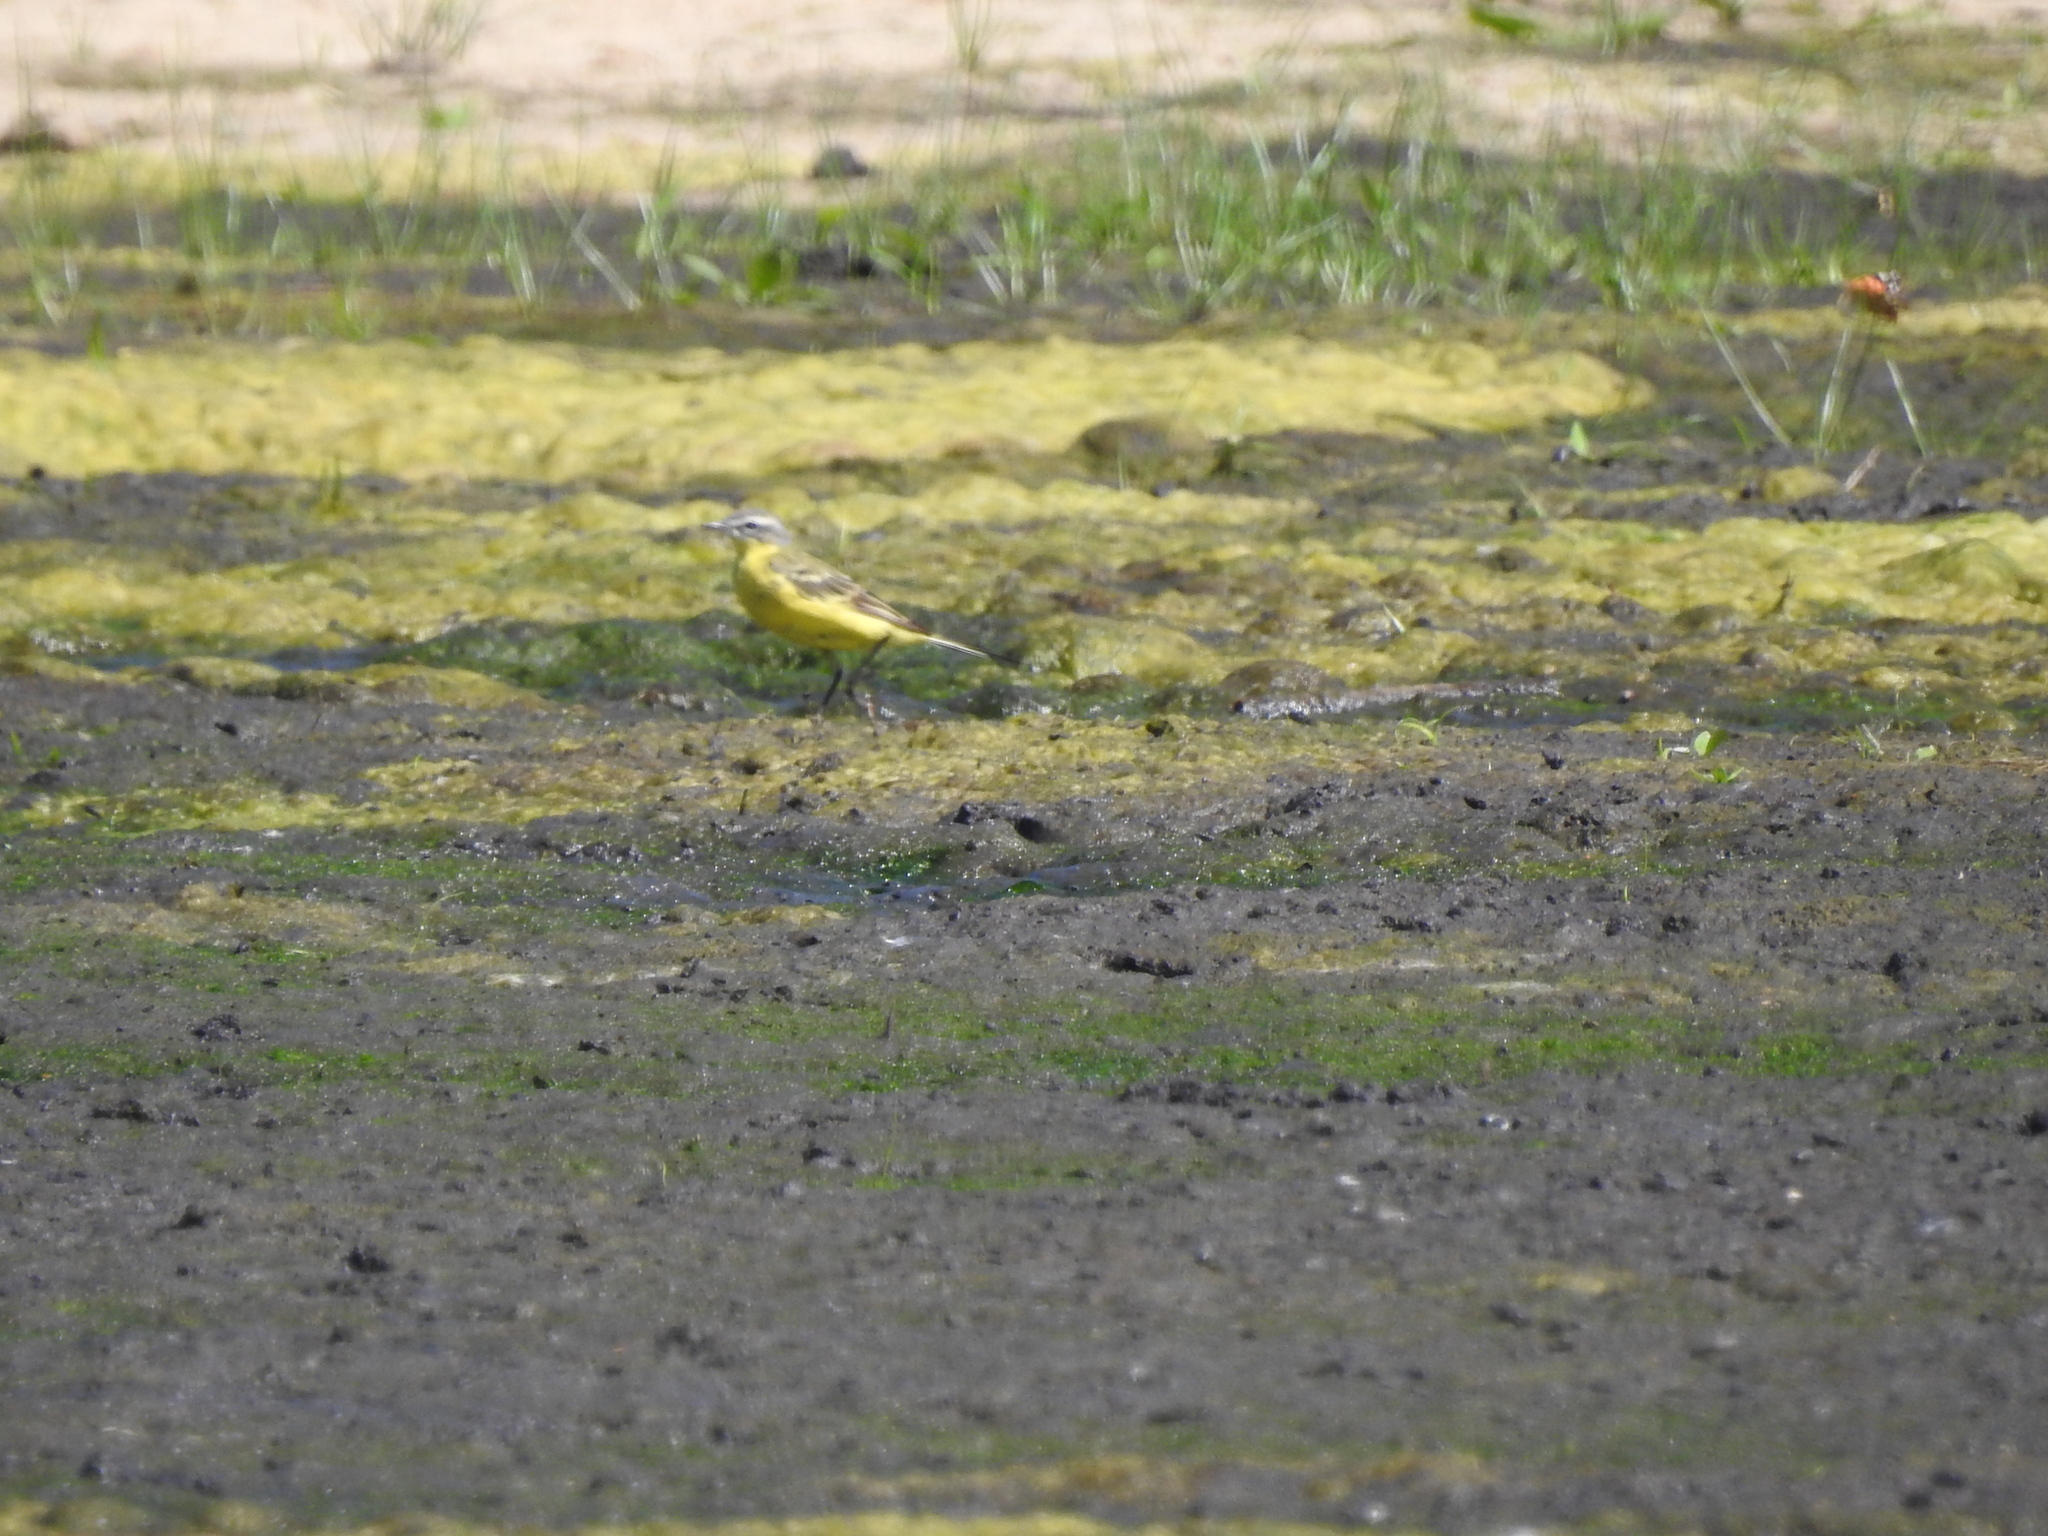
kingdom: Animalia
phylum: Chordata
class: Aves
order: Passeriformes
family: Motacillidae
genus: Motacilla
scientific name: Motacilla flava
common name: Western yellow wagtail
